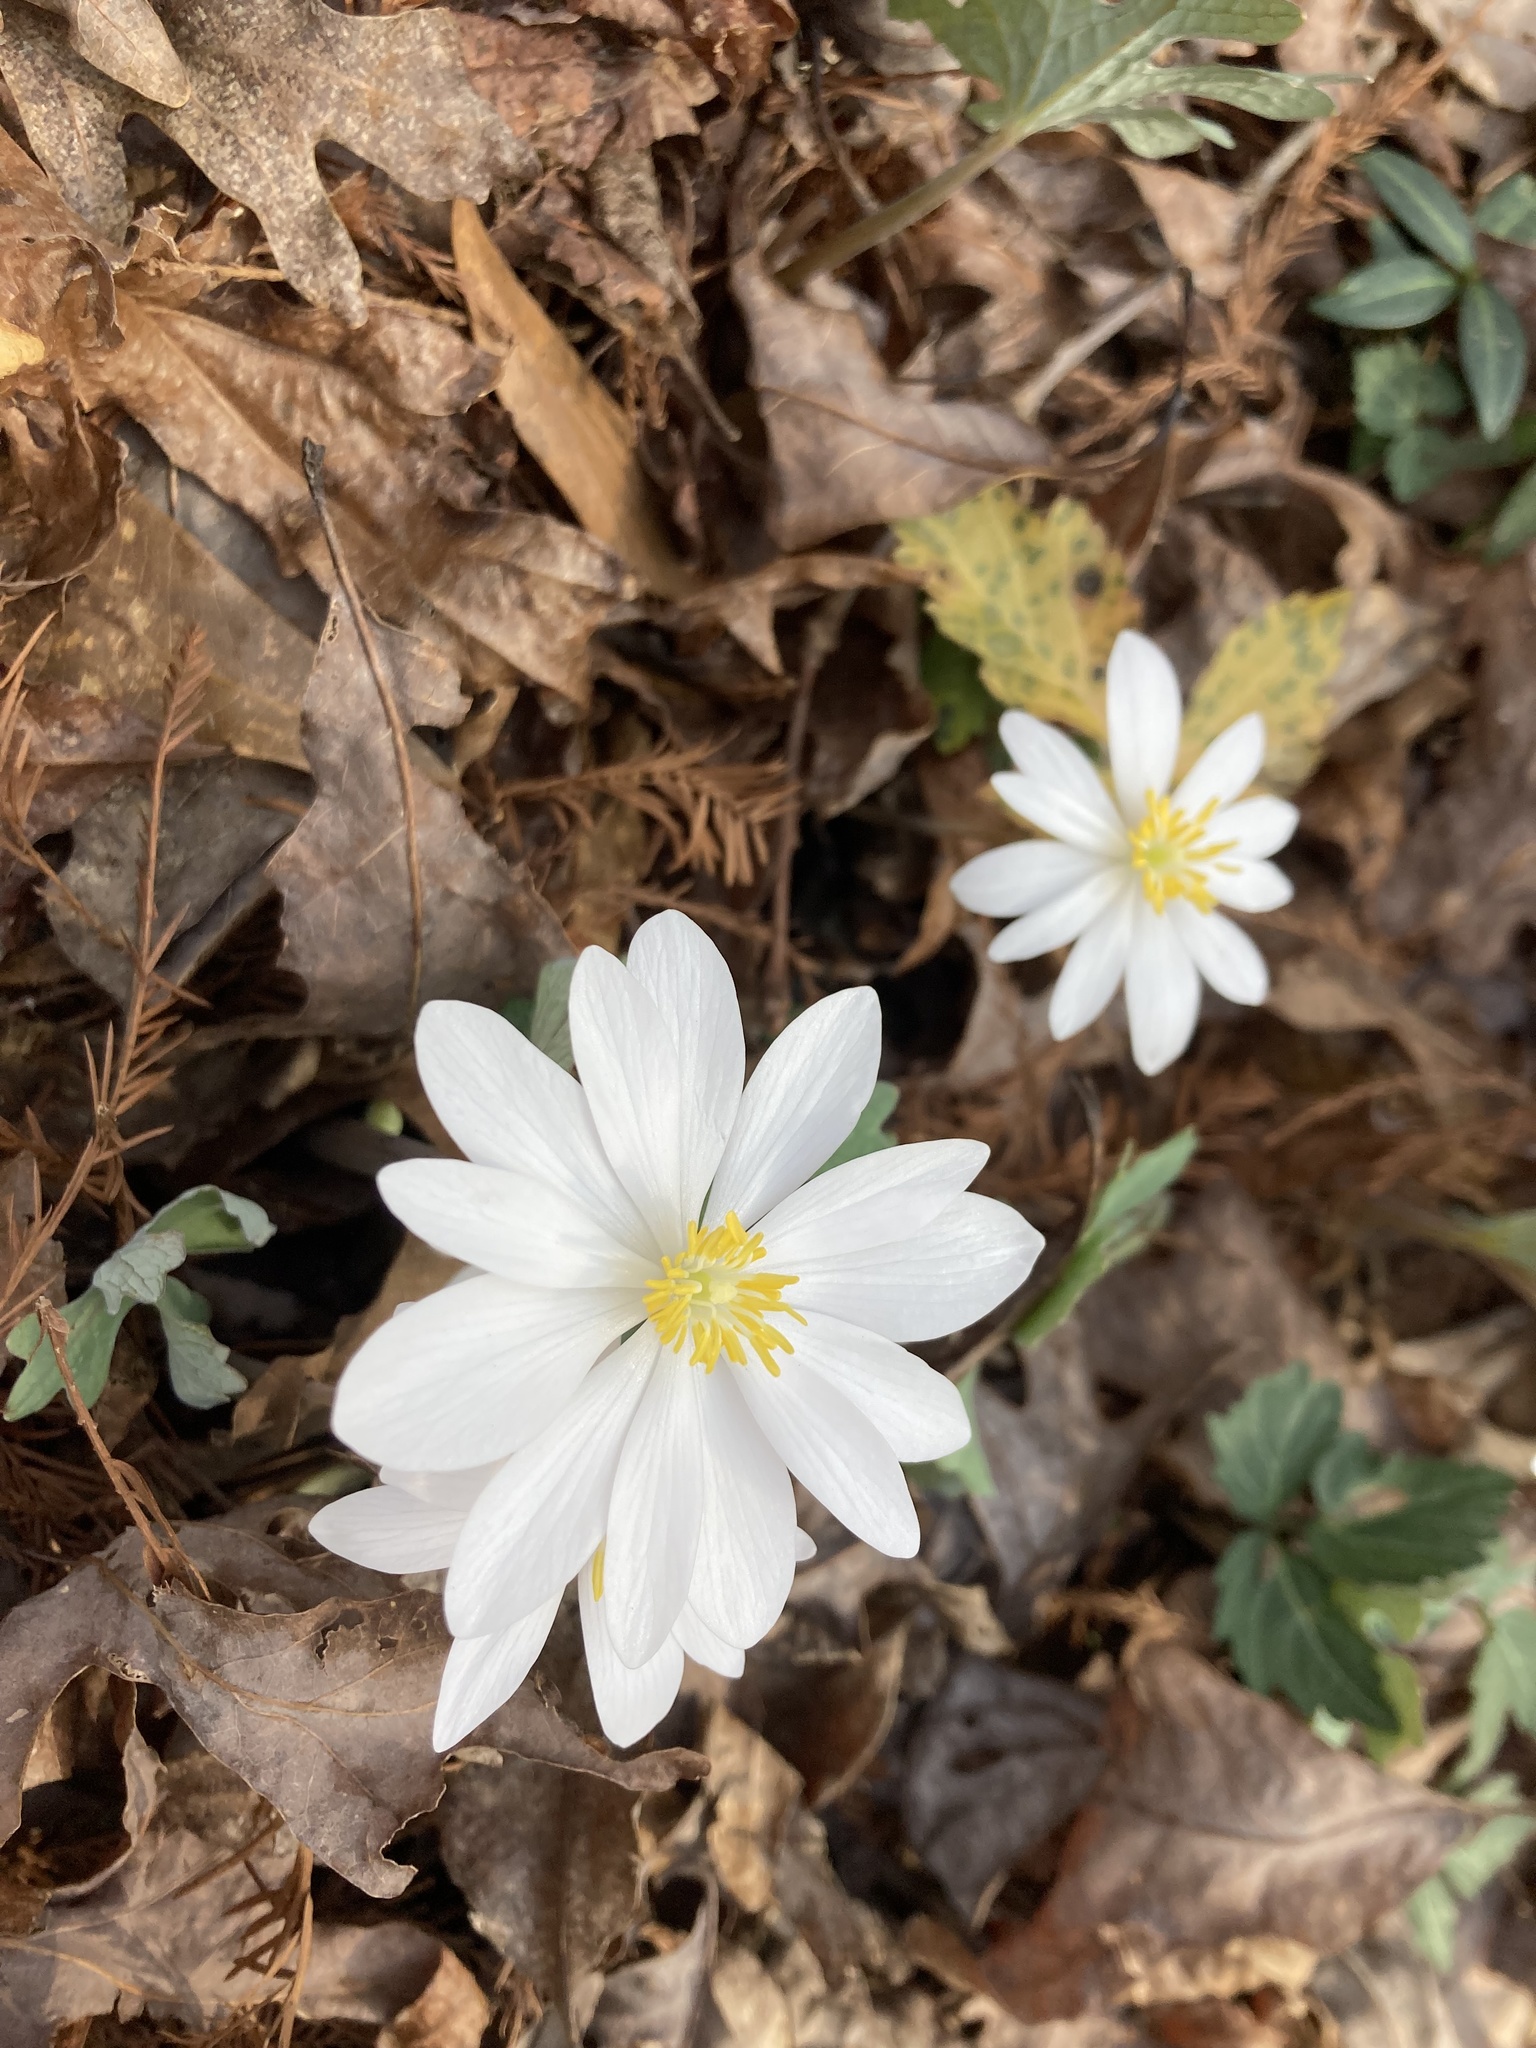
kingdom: Plantae
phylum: Tracheophyta
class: Magnoliopsida
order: Ranunculales
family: Papaveraceae
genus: Sanguinaria
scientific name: Sanguinaria canadensis
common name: Bloodroot
